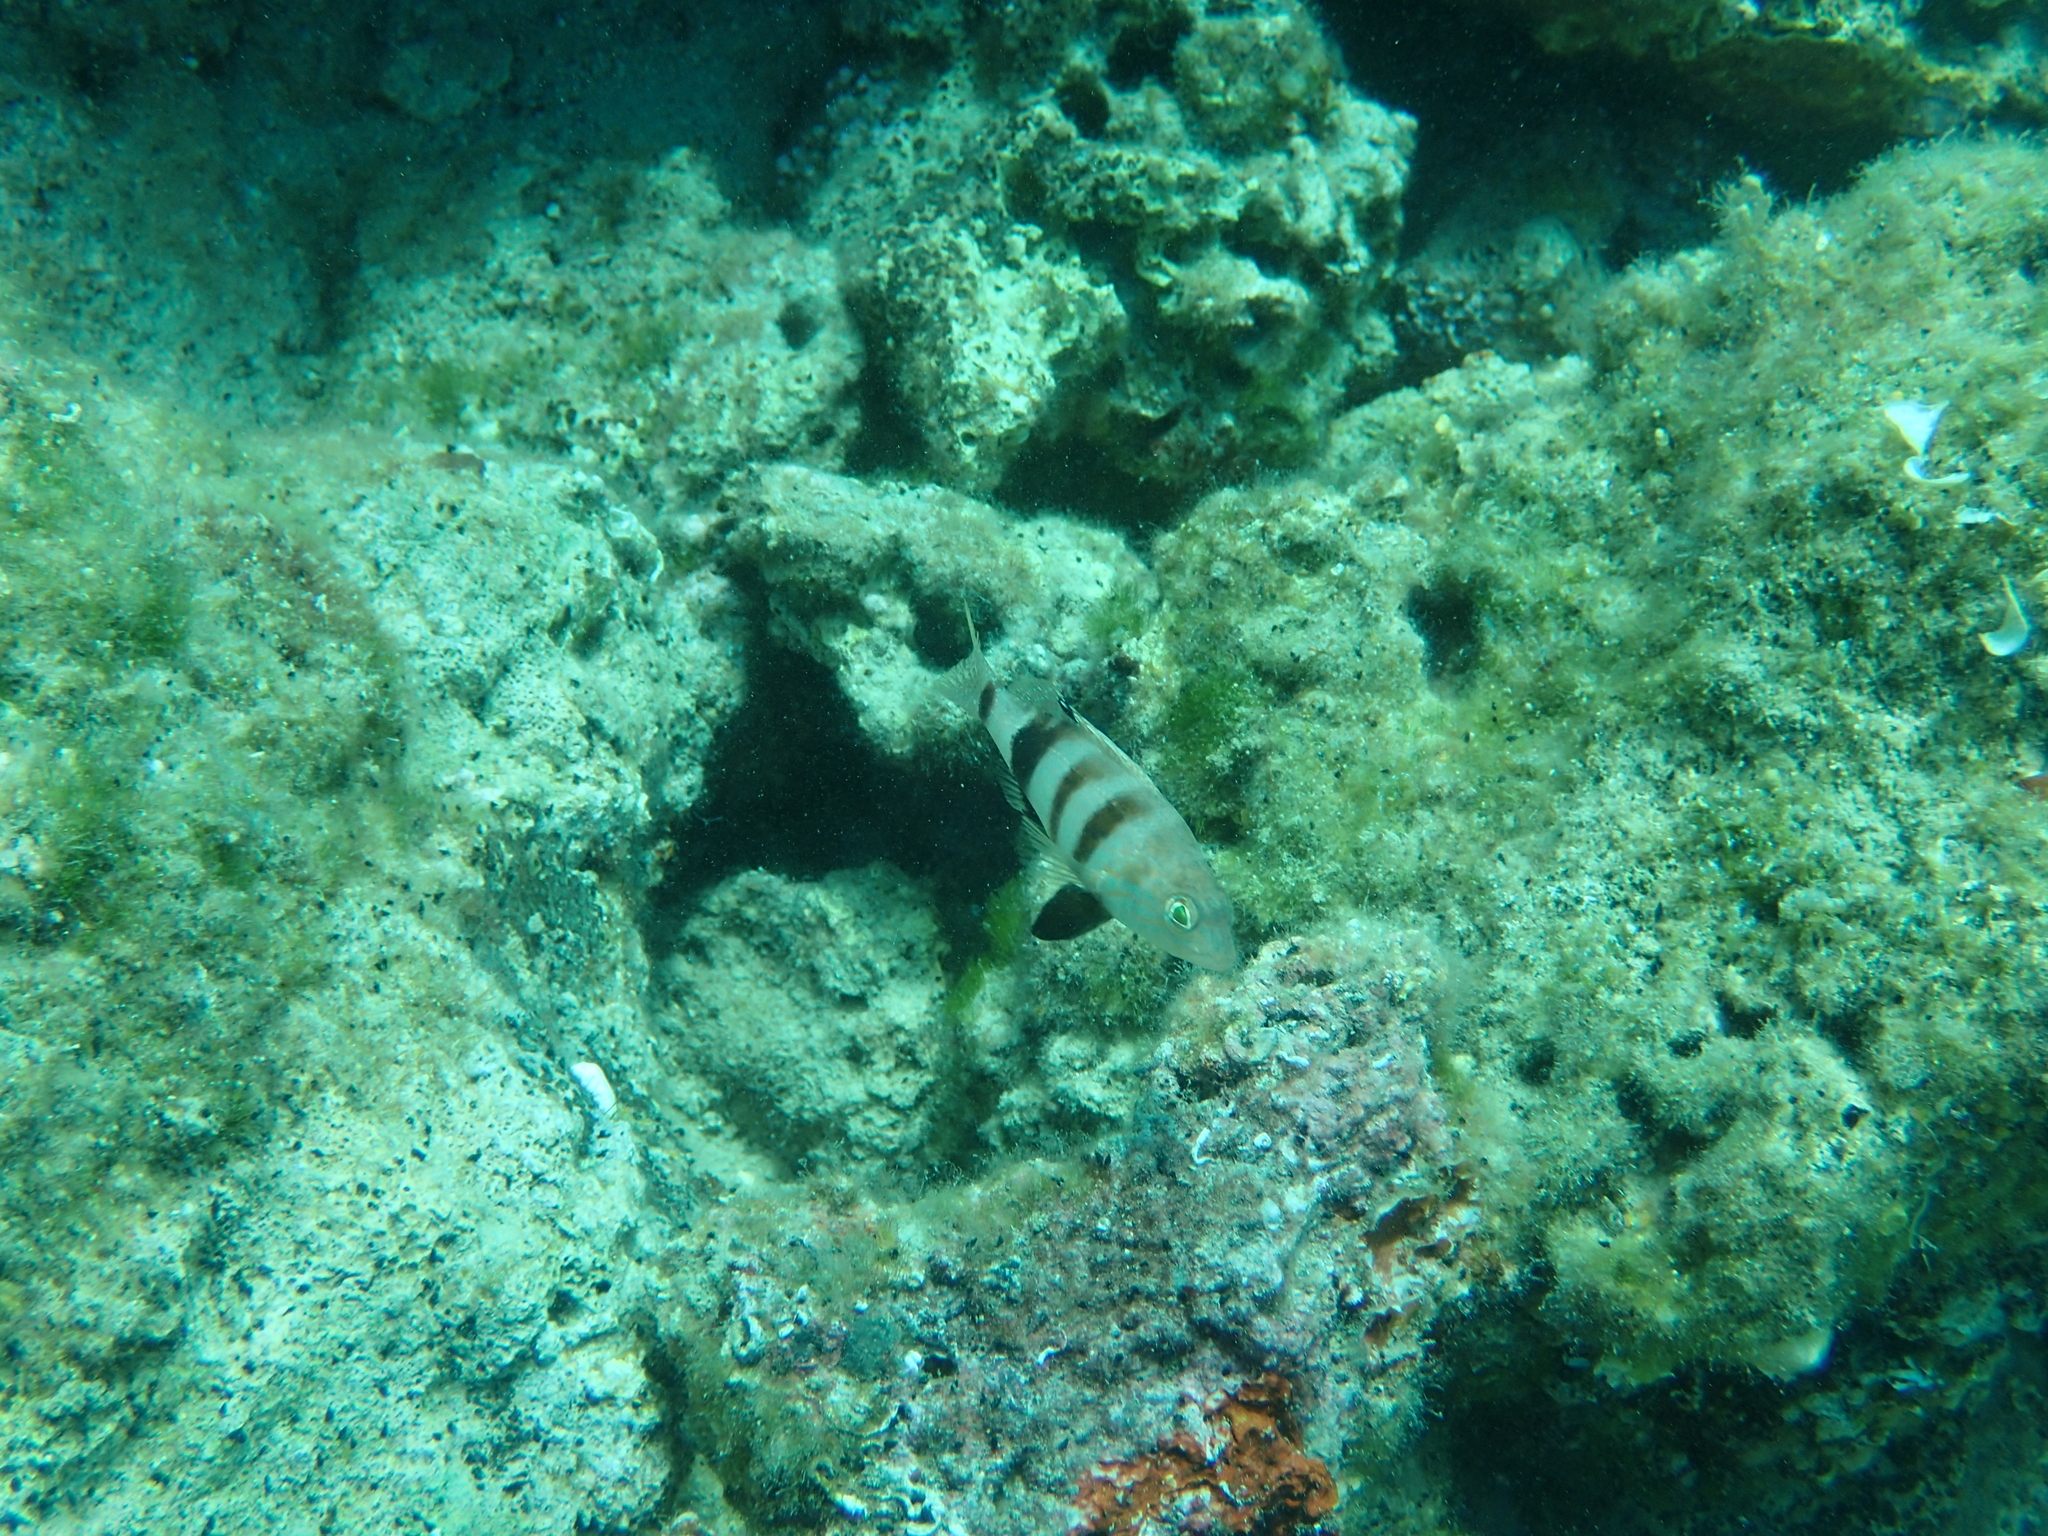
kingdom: Animalia
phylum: Chordata
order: Perciformes
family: Serranidae
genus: Serranus
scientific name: Serranus hepatus
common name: Brown comber
